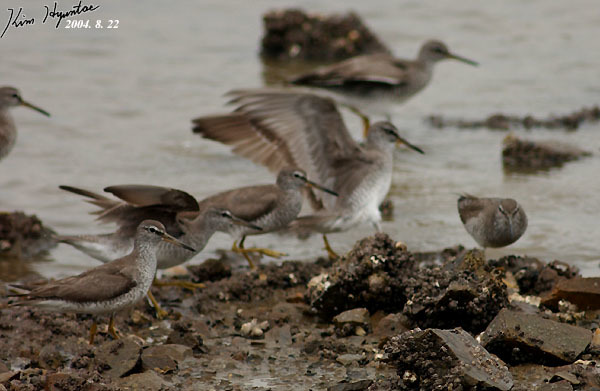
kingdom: Animalia
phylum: Chordata
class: Aves
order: Charadriiformes
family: Scolopacidae
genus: Tringa
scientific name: Tringa brevipes
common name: Grey-tailed tattler
